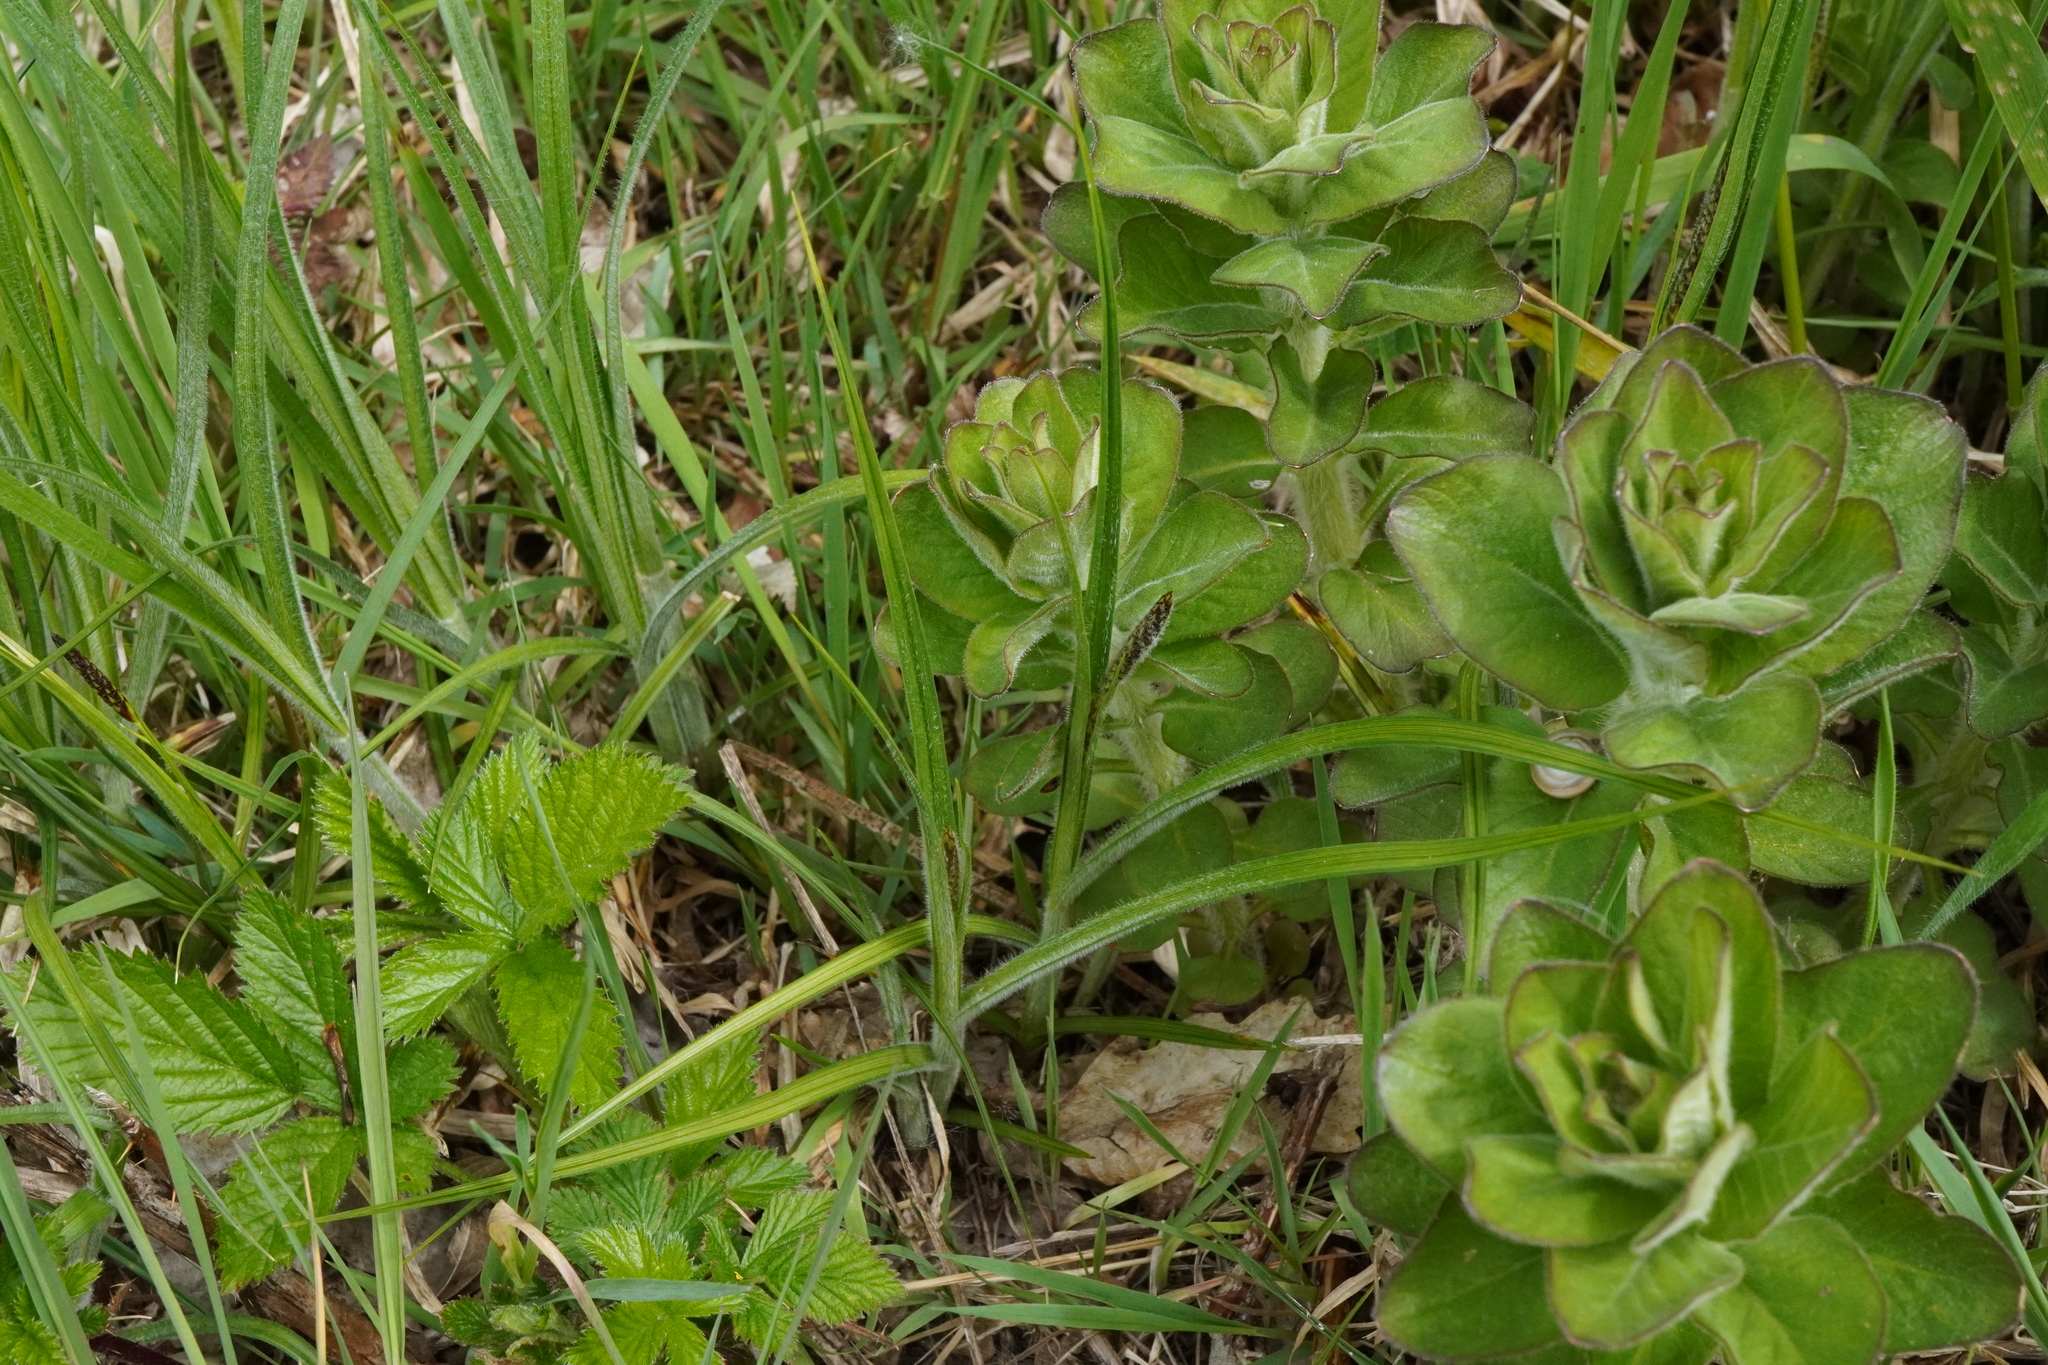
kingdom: Plantae
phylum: Tracheophyta
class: Liliopsida
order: Poales
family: Cyperaceae
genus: Carex
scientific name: Carex hirta
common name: Hairy sedge
